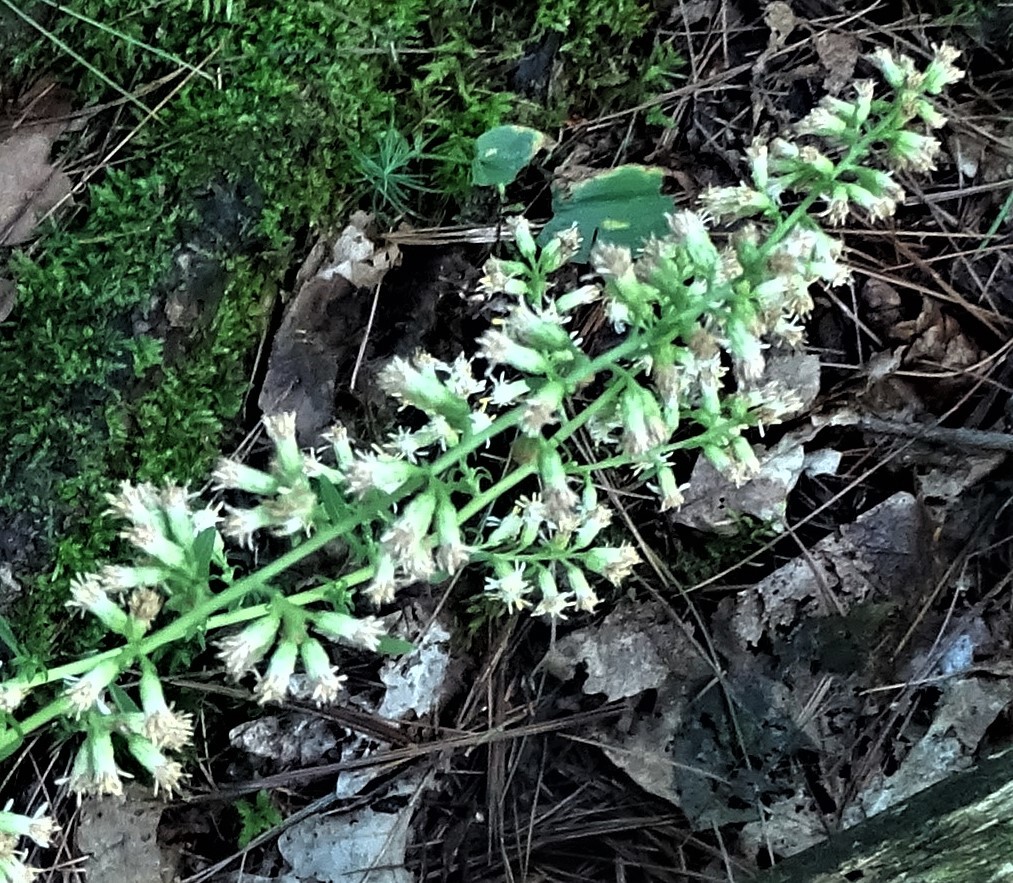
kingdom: Plantae
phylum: Tracheophyta
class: Magnoliopsida
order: Asterales
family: Asteraceae
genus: Solidago
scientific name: Solidago bicolor
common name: Silverrod
